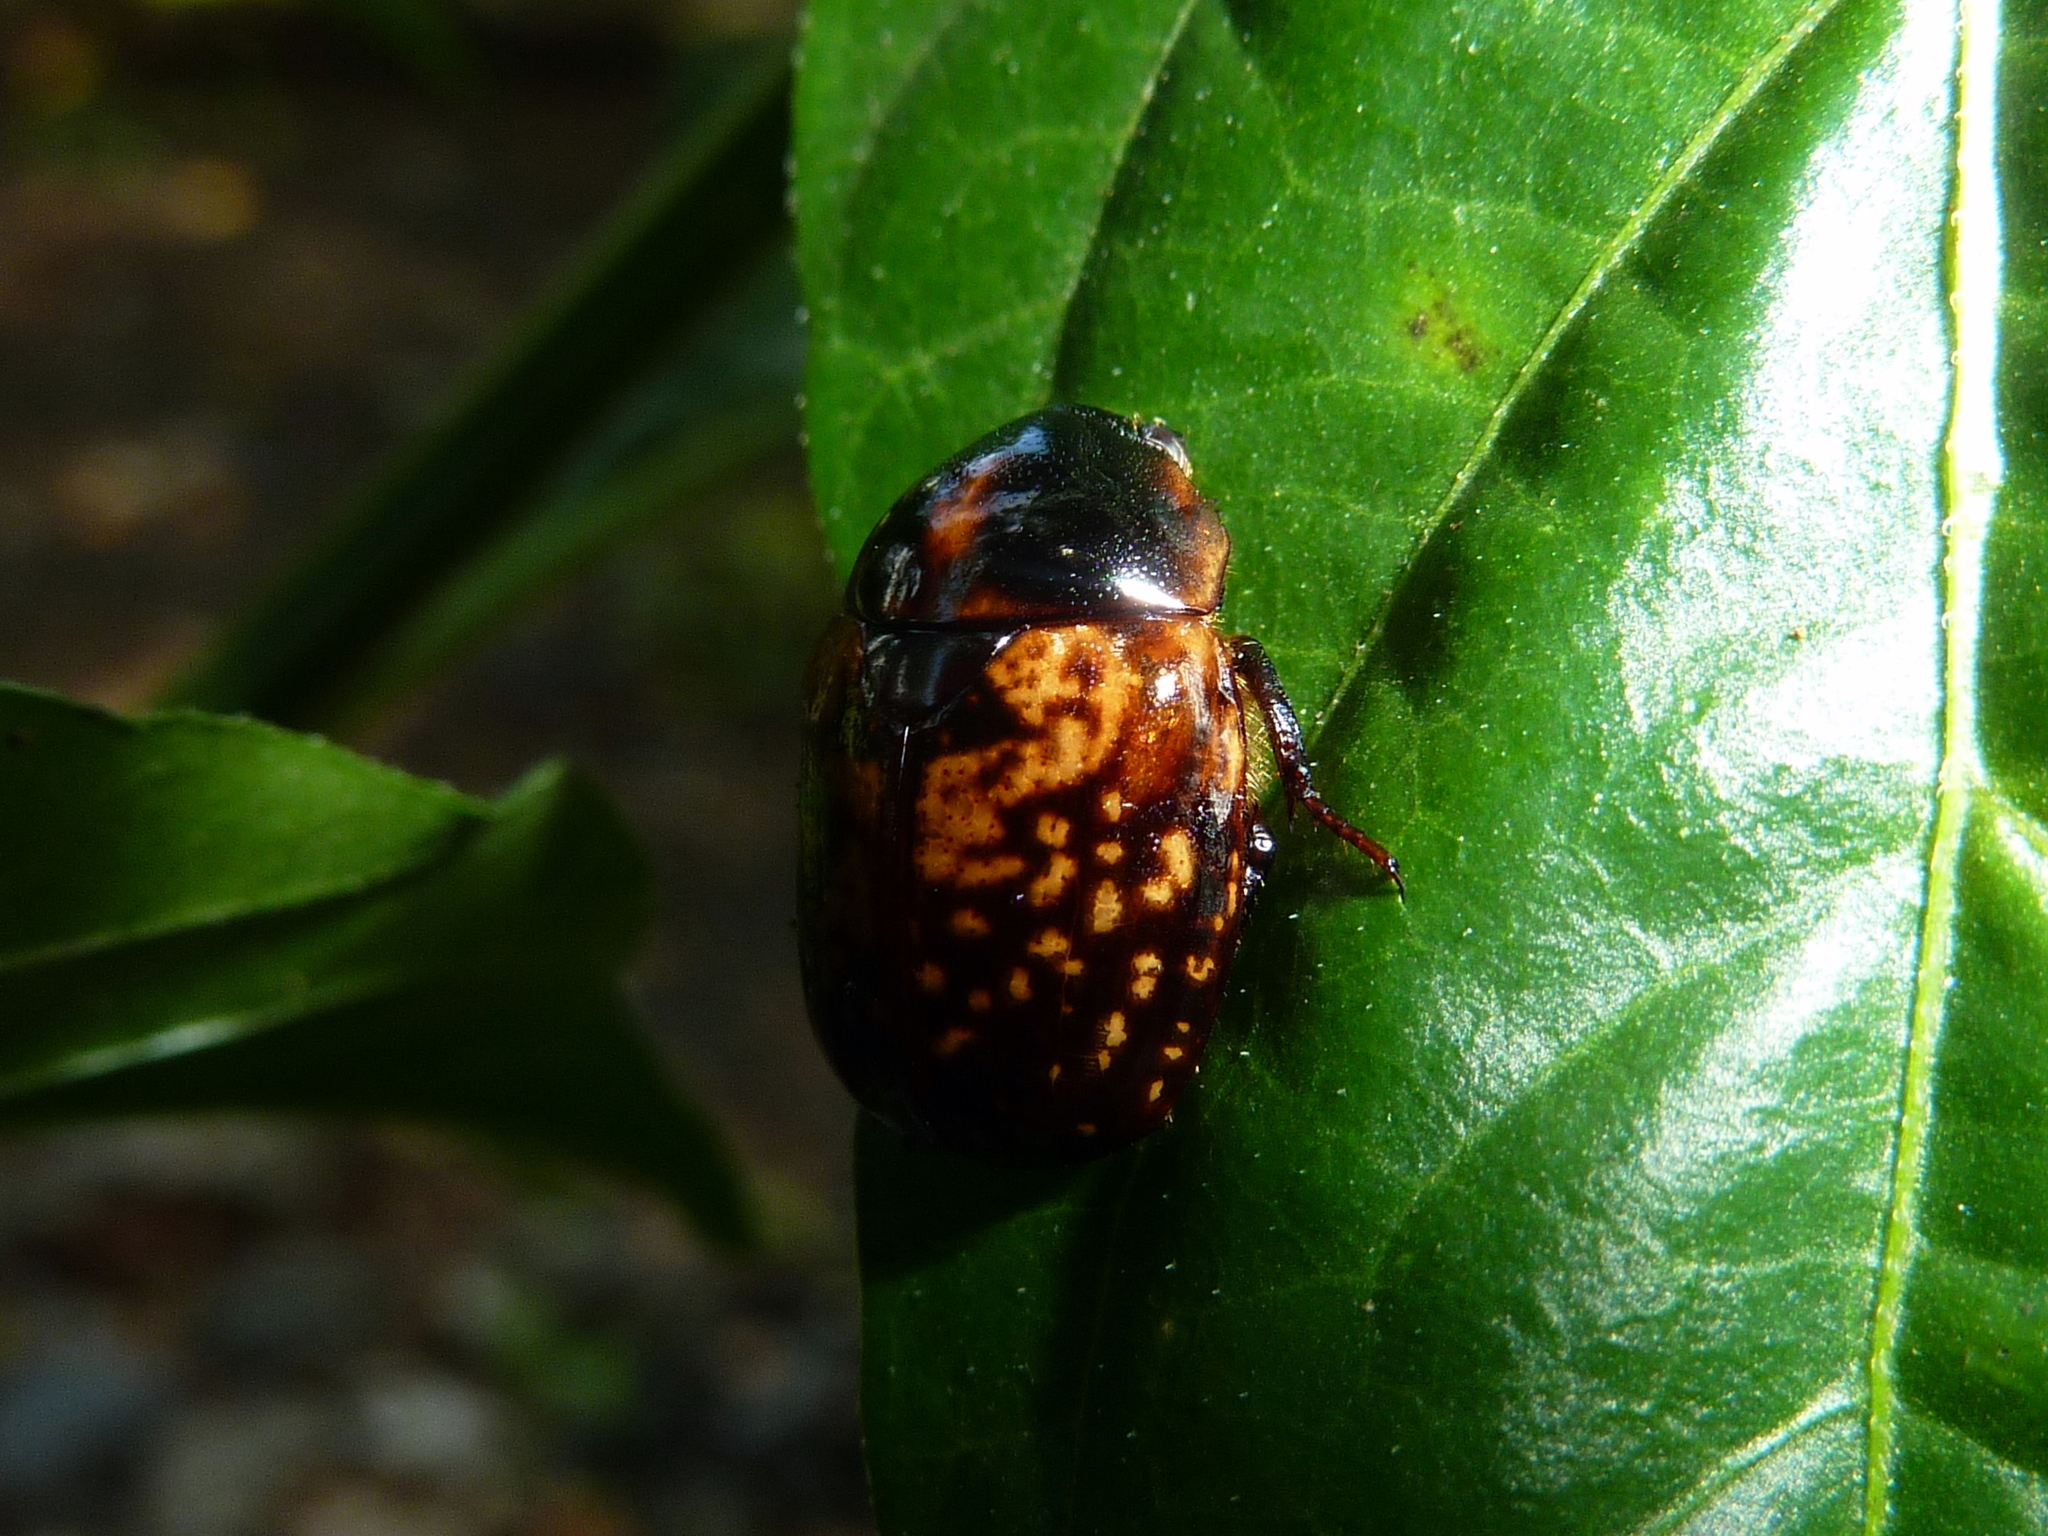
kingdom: Animalia
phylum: Arthropoda
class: Insecta
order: Coleoptera
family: Scarabaeidae
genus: Parastasia
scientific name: Parastasia percheroni
